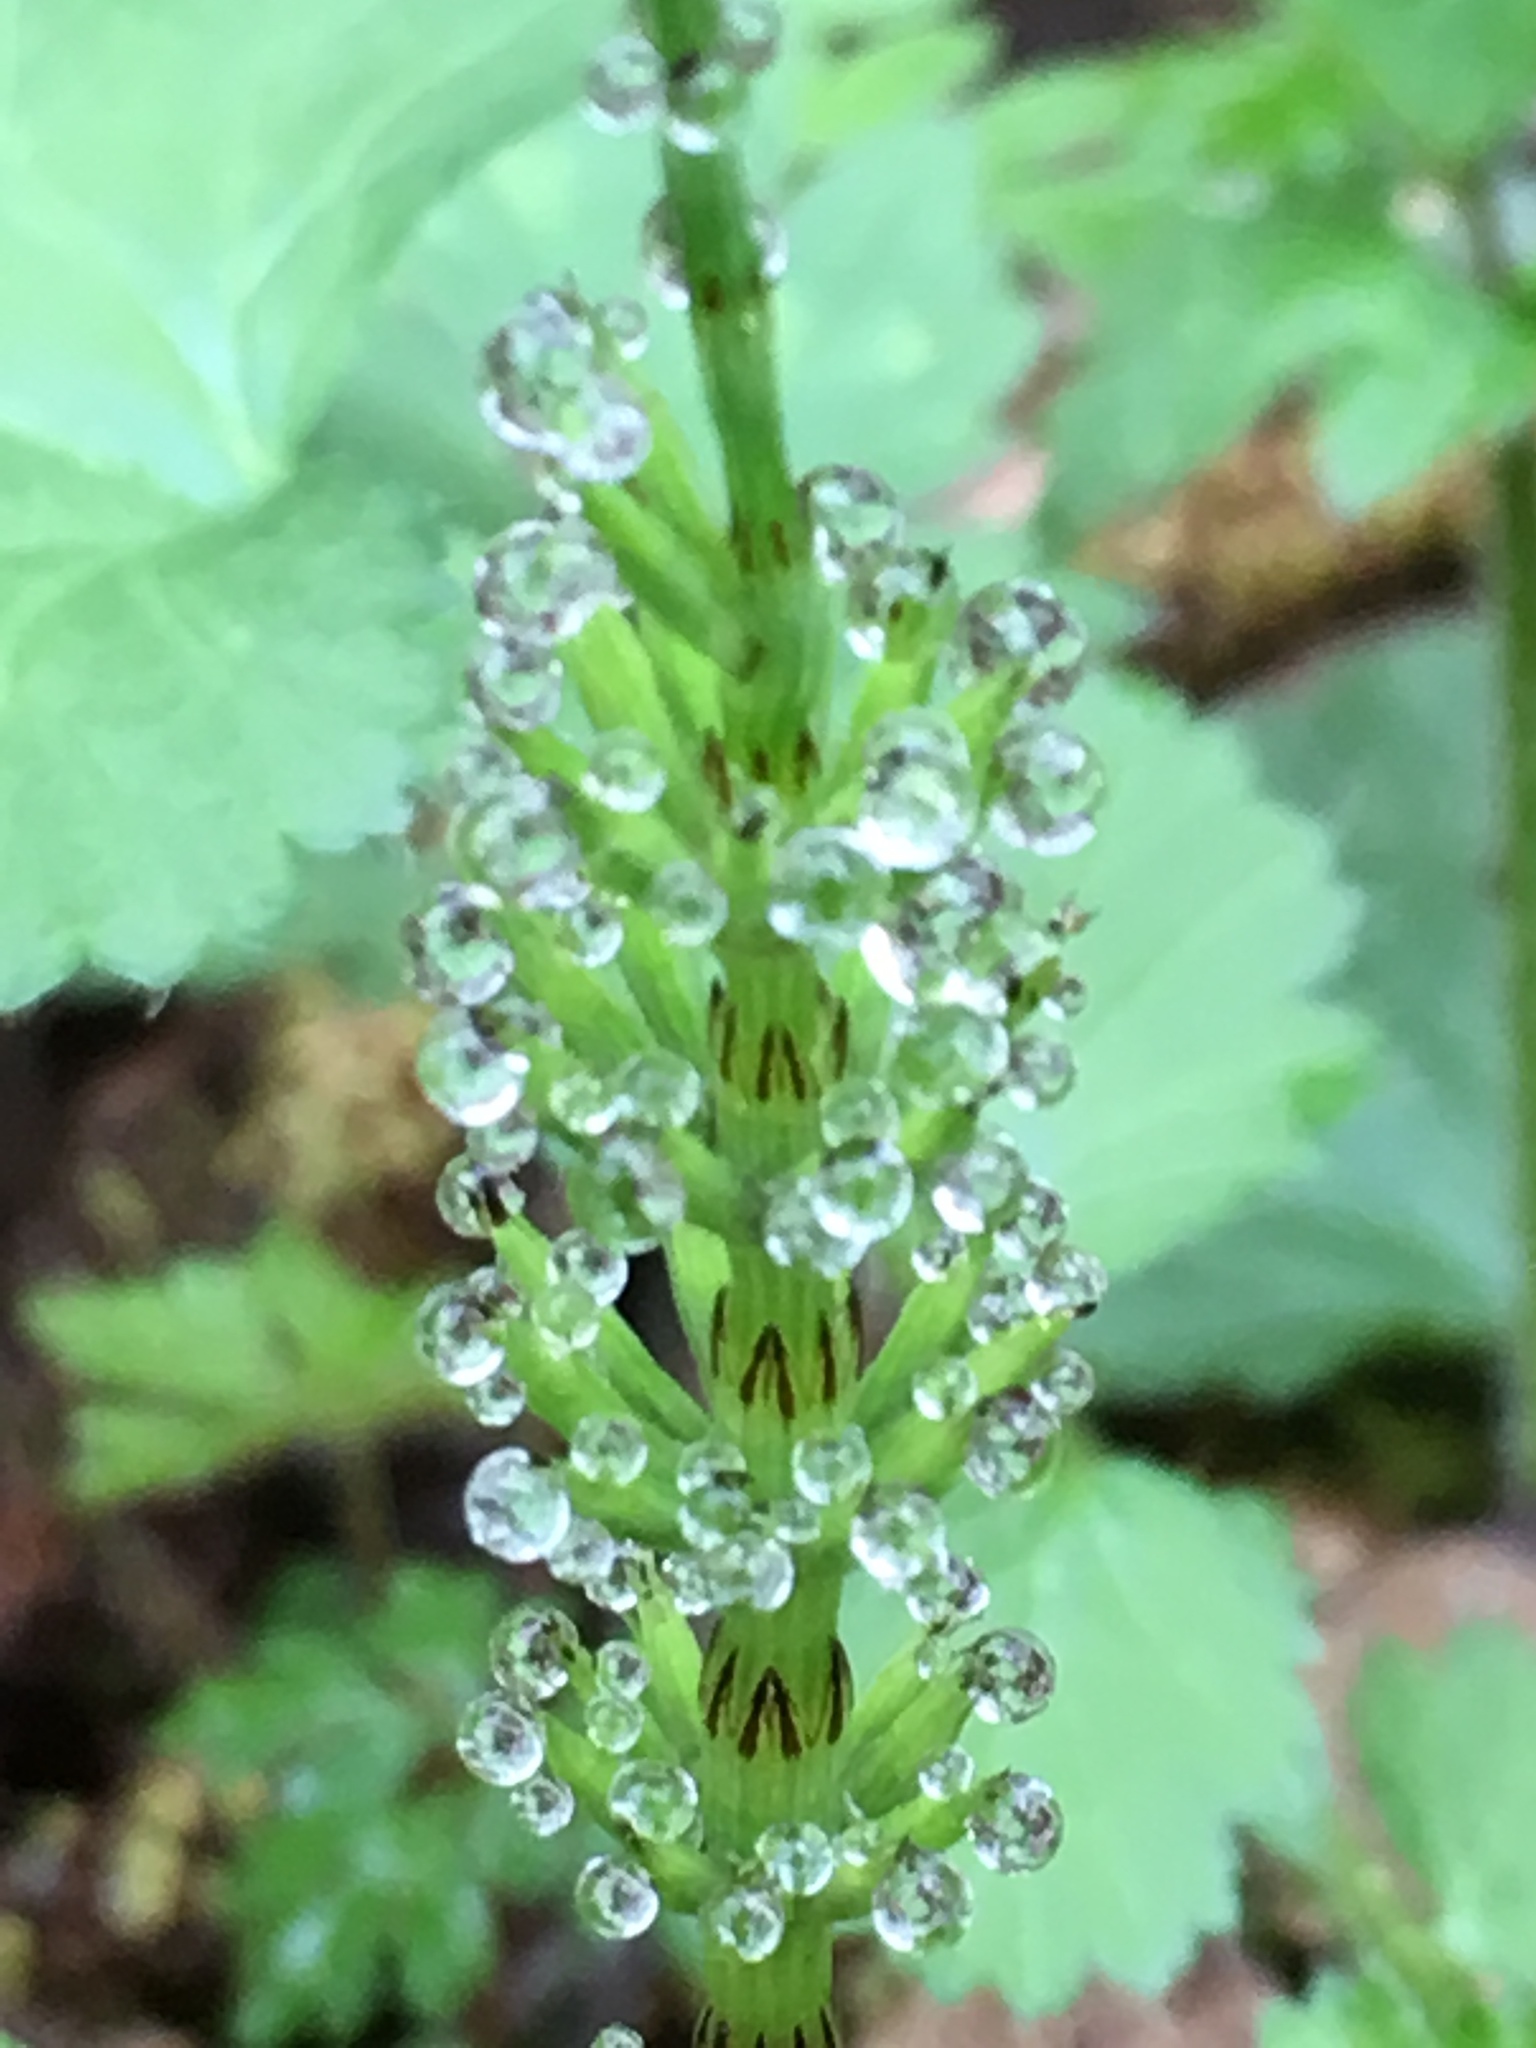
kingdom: Plantae
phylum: Tracheophyta
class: Polypodiopsida
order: Equisetales
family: Equisetaceae
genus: Equisetum
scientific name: Equisetum arvense
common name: Field horsetail
